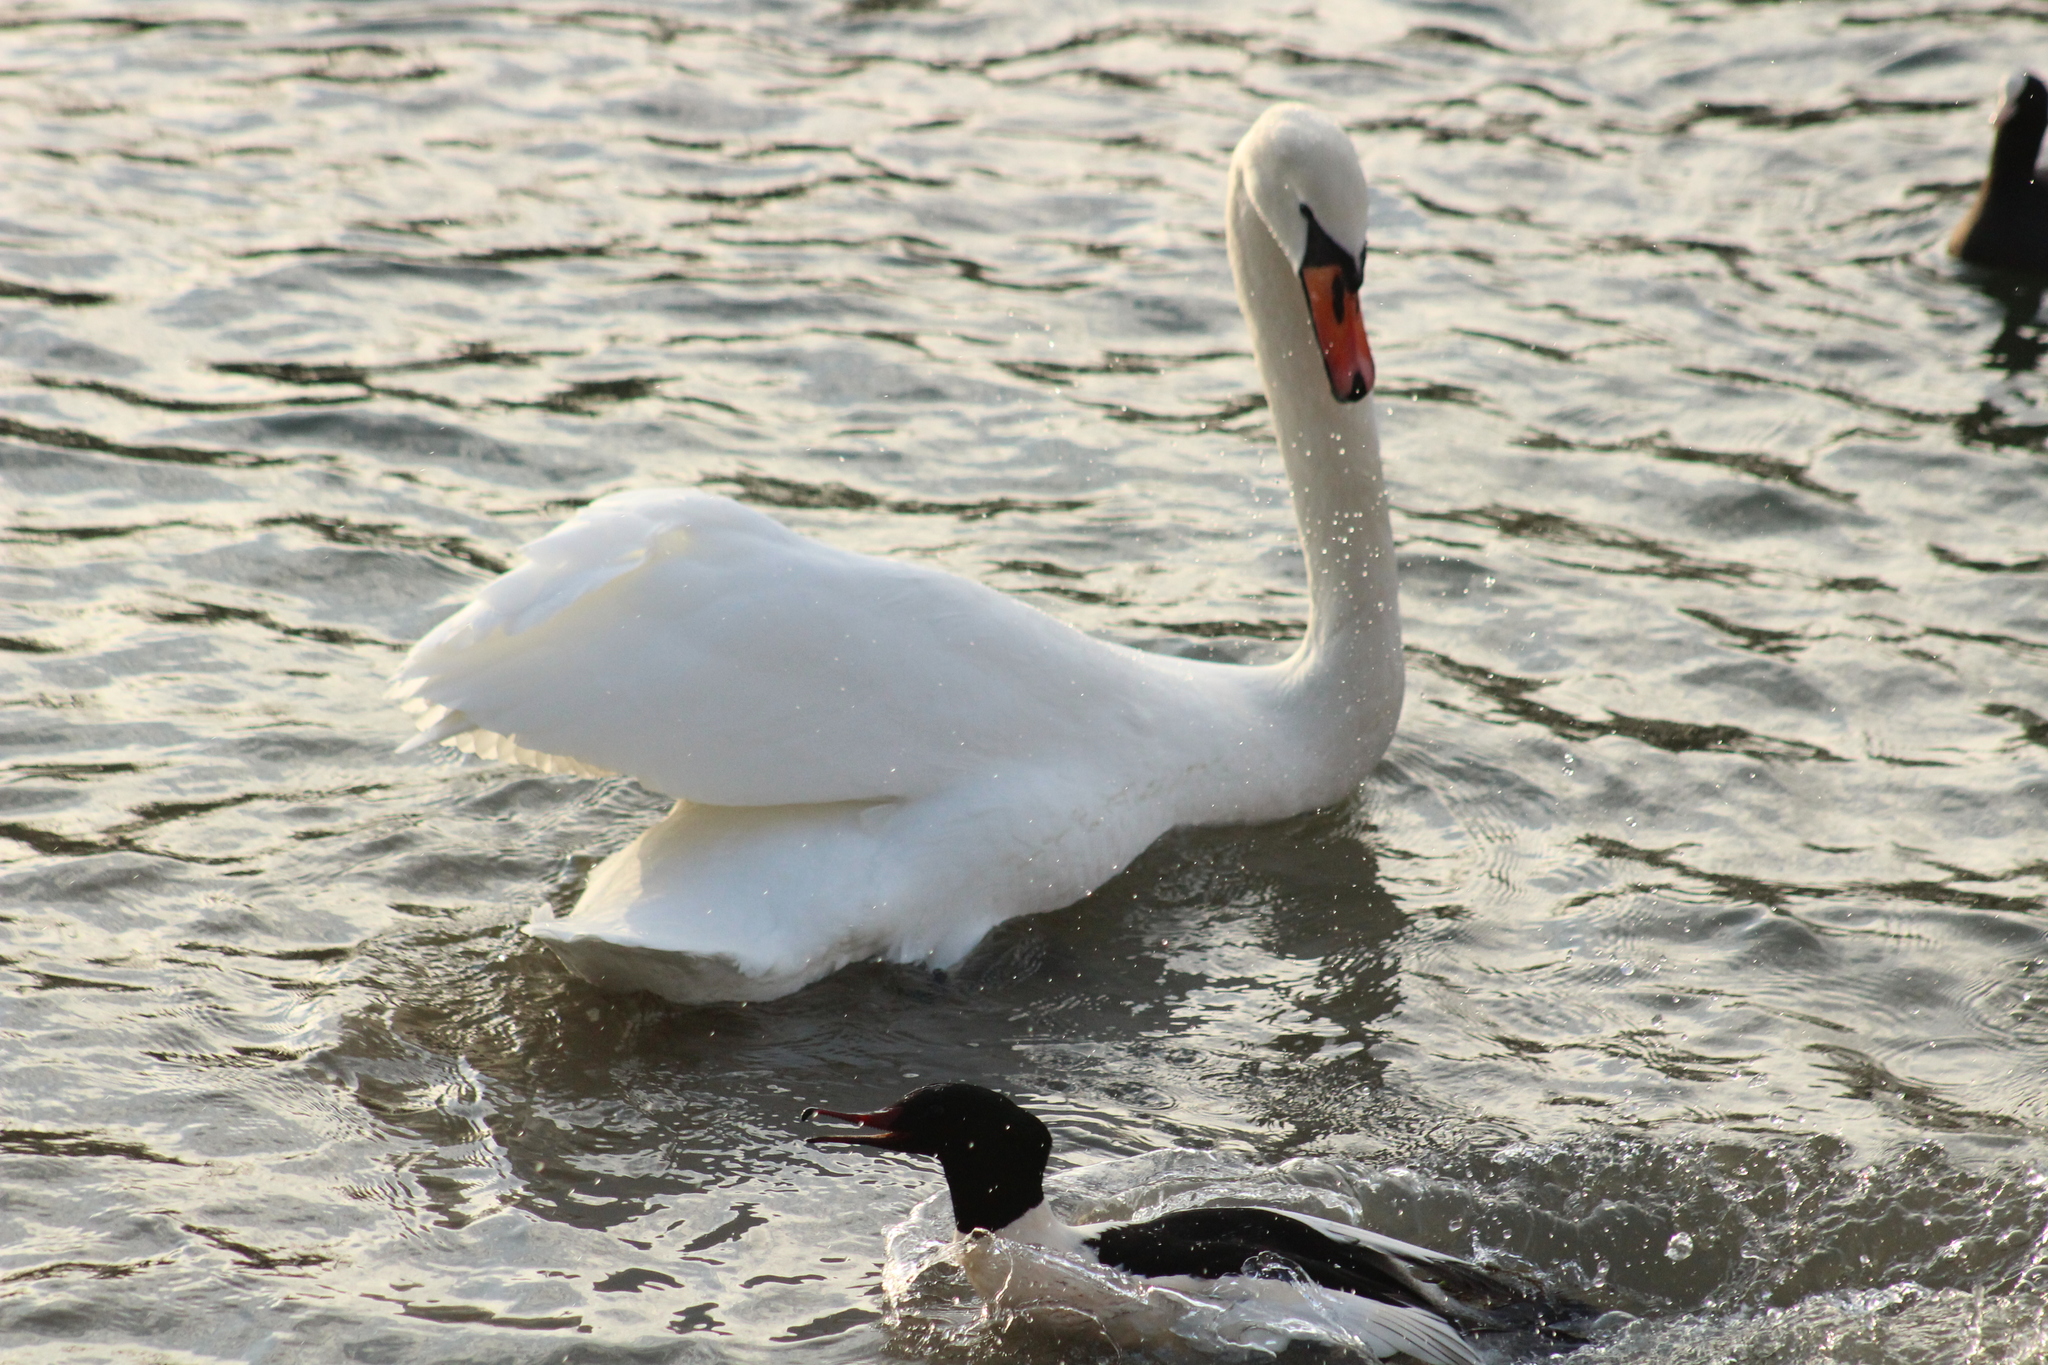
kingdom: Animalia
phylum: Chordata
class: Aves
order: Anseriformes
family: Anatidae
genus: Cygnus
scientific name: Cygnus olor
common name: Mute swan
